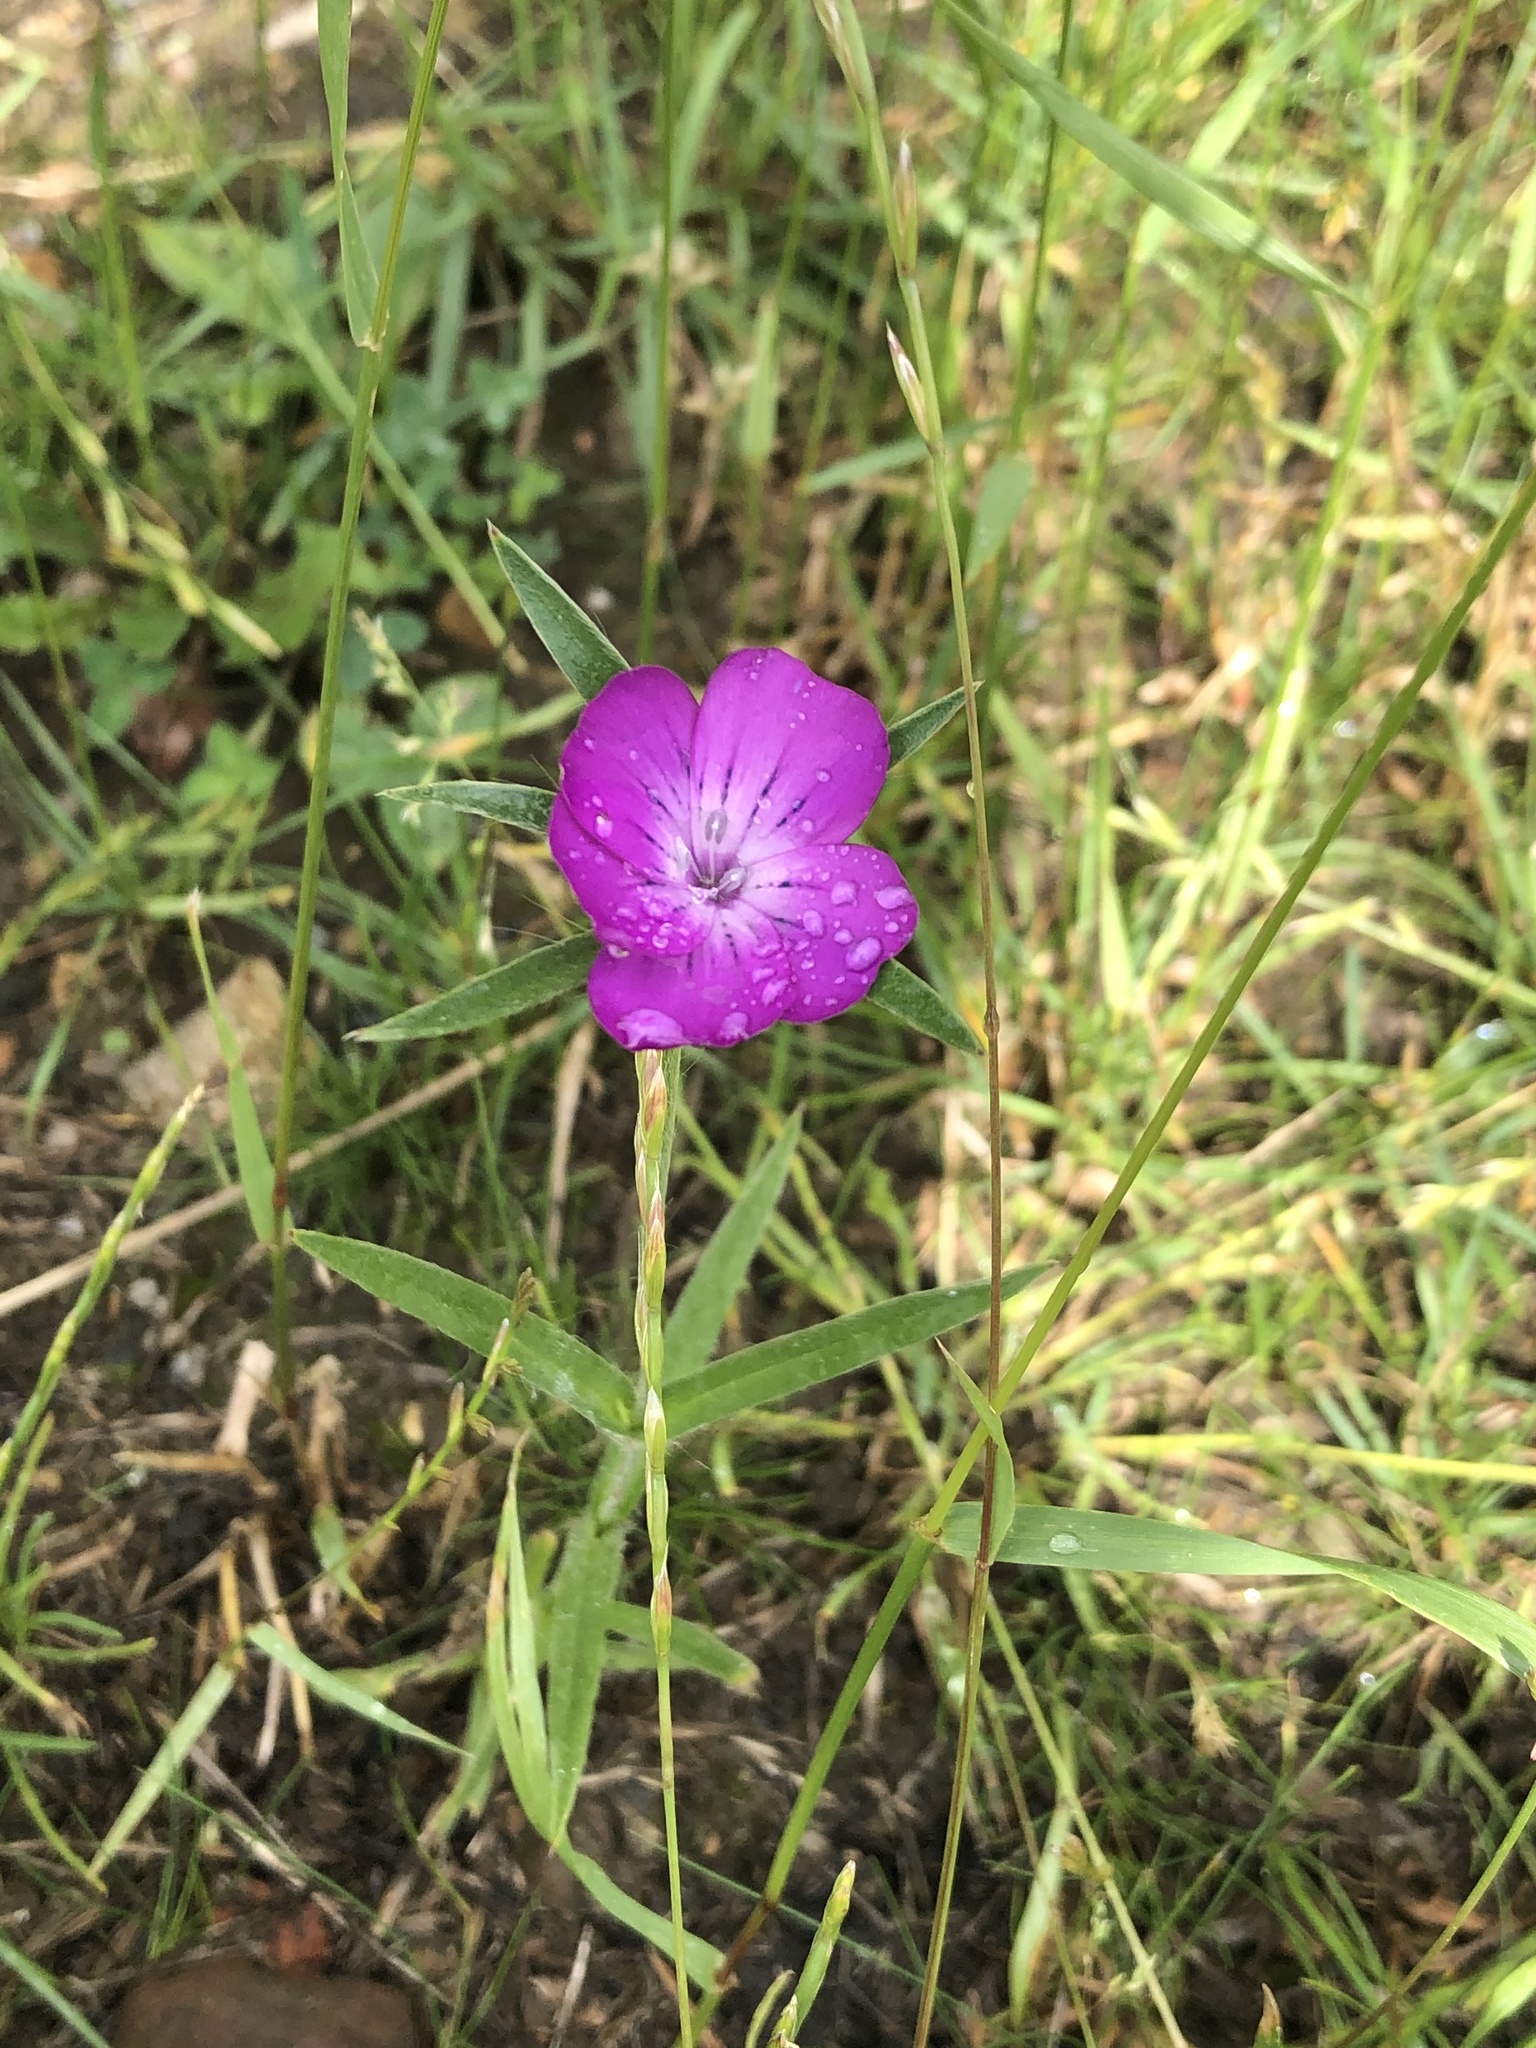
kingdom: Plantae
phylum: Tracheophyta
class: Magnoliopsida
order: Caryophyllales
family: Caryophyllaceae
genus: Agrostemma
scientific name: Agrostemma githago
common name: Common corncockle
